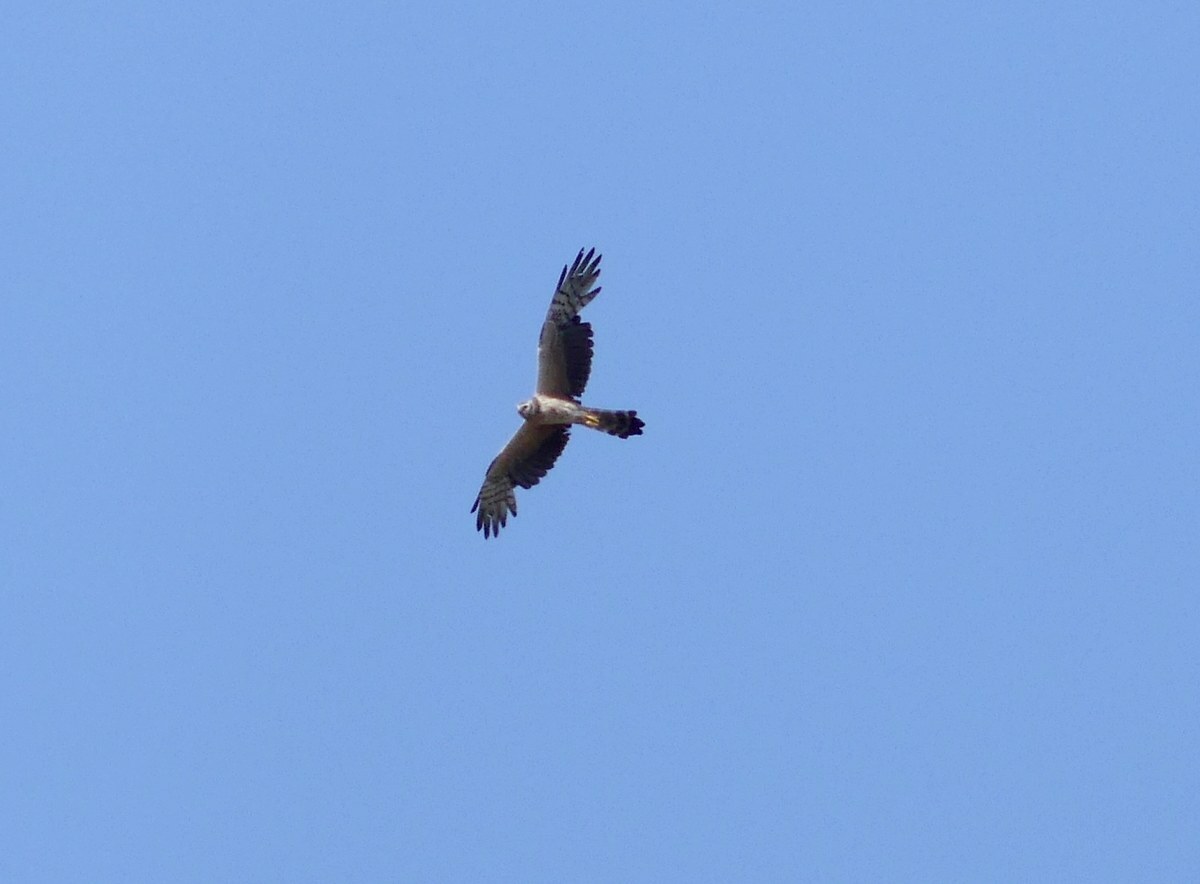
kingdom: Animalia
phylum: Chordata
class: Aves
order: Accipitriformes
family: Accipitridae
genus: Circus
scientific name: Circus pygargus
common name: Montagu's harrier
